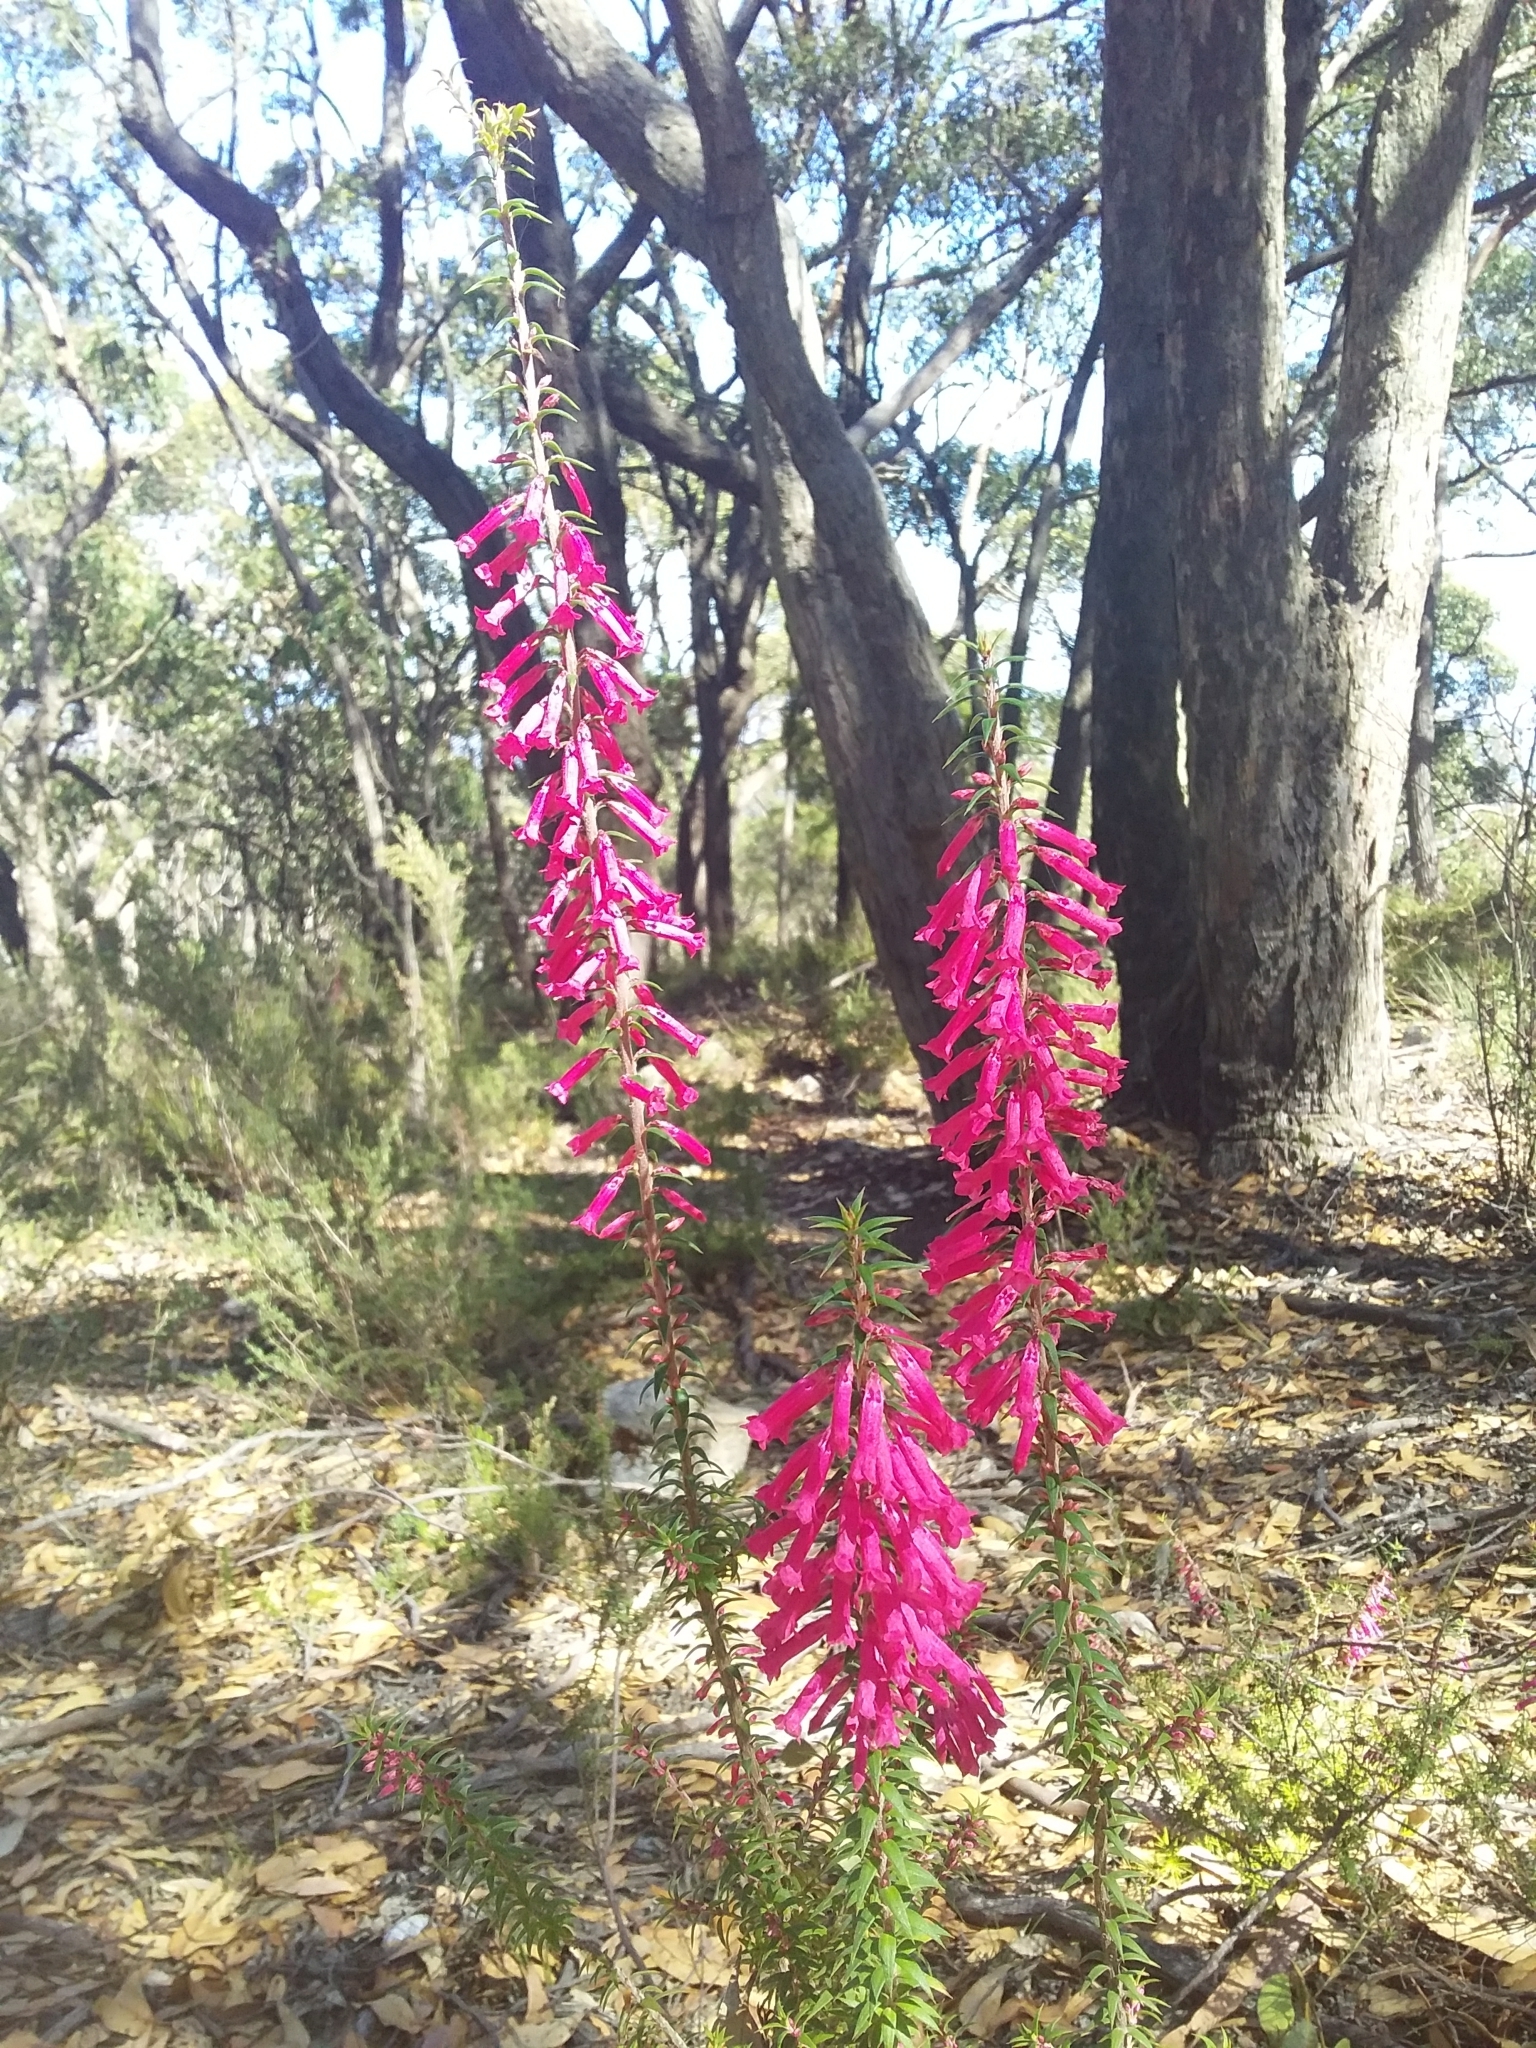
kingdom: Plantae
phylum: Tracheophyta
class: Magnoliopsida
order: Ericales
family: Ericaceae
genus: Epacris
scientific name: Epacris impressa
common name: Common-heath
